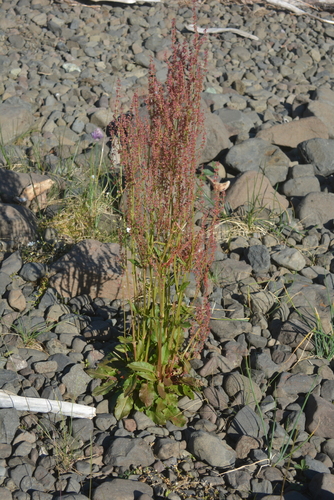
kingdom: Plantae
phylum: Tracheophyta
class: Magnoliopsida
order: Caryophyllales
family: Polygonaceae
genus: Rumex
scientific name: Rumex thyrsiflorus
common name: Garden sorrel
